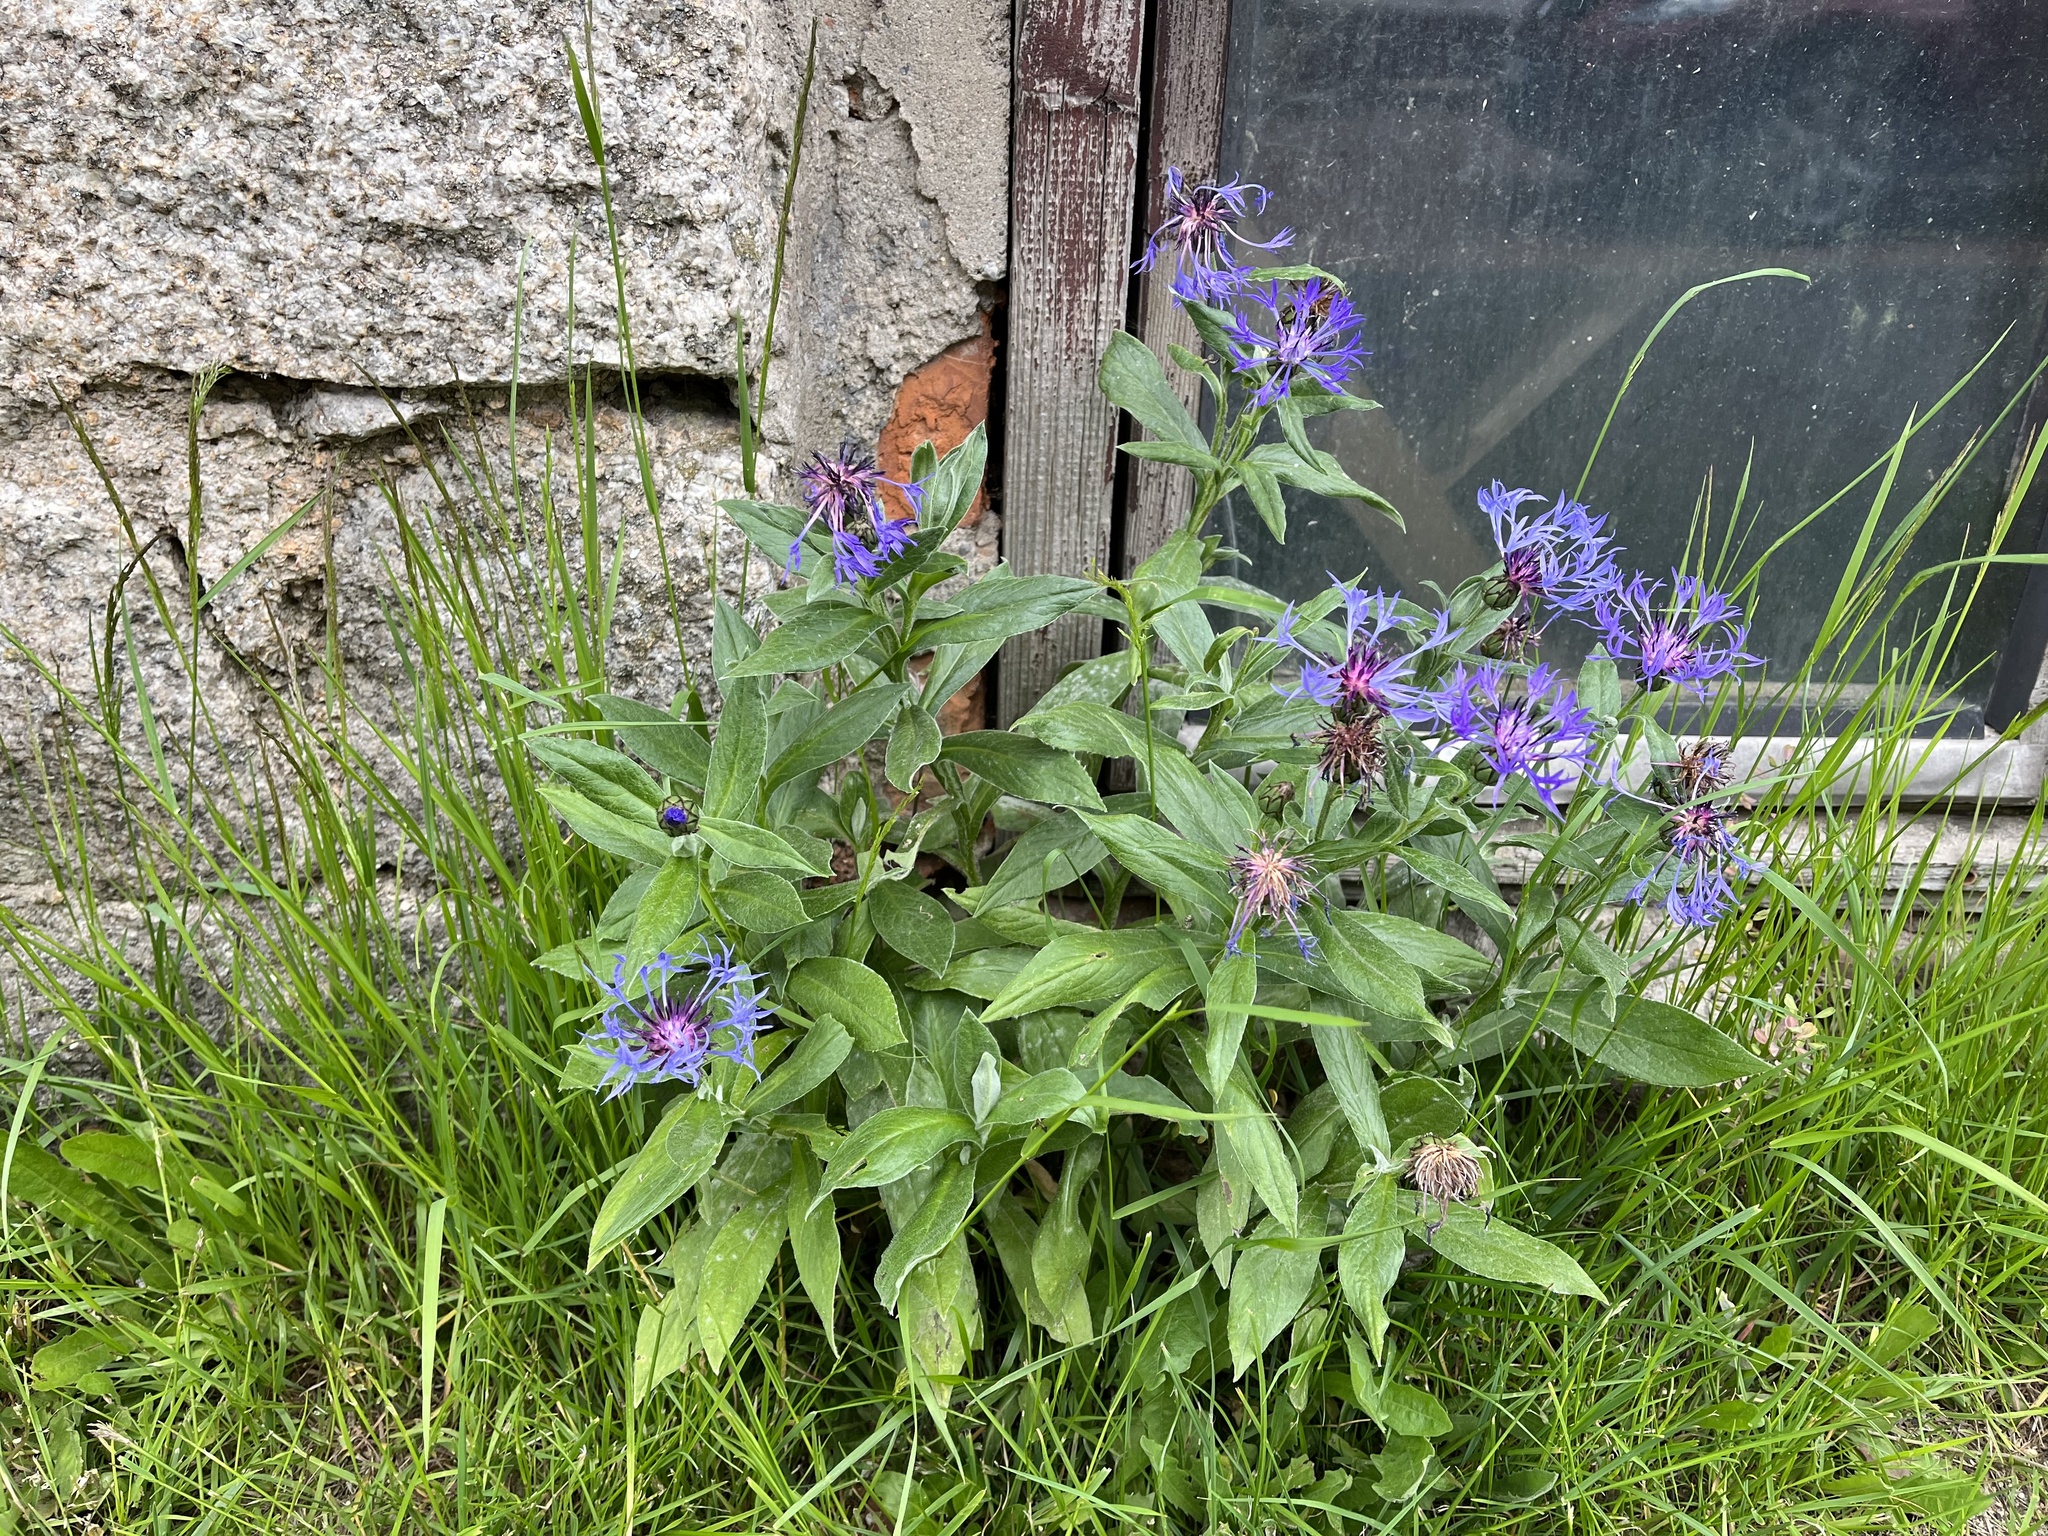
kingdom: Plantae
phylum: Tracheophyta
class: Magnoliopsida
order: Asterales
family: Asteraceae
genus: Centaurea
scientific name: Centaurea montana
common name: Perennial cornflower
